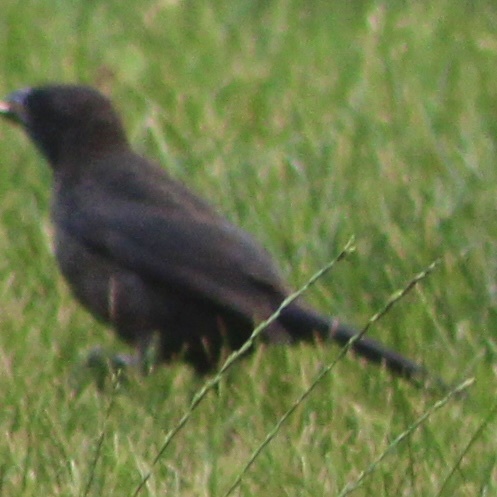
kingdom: Animalia
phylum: Chordata
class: Aves
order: Passeriformes
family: Icteridae
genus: Quiscalus
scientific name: Quiscalus quiscula
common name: Common grackle
